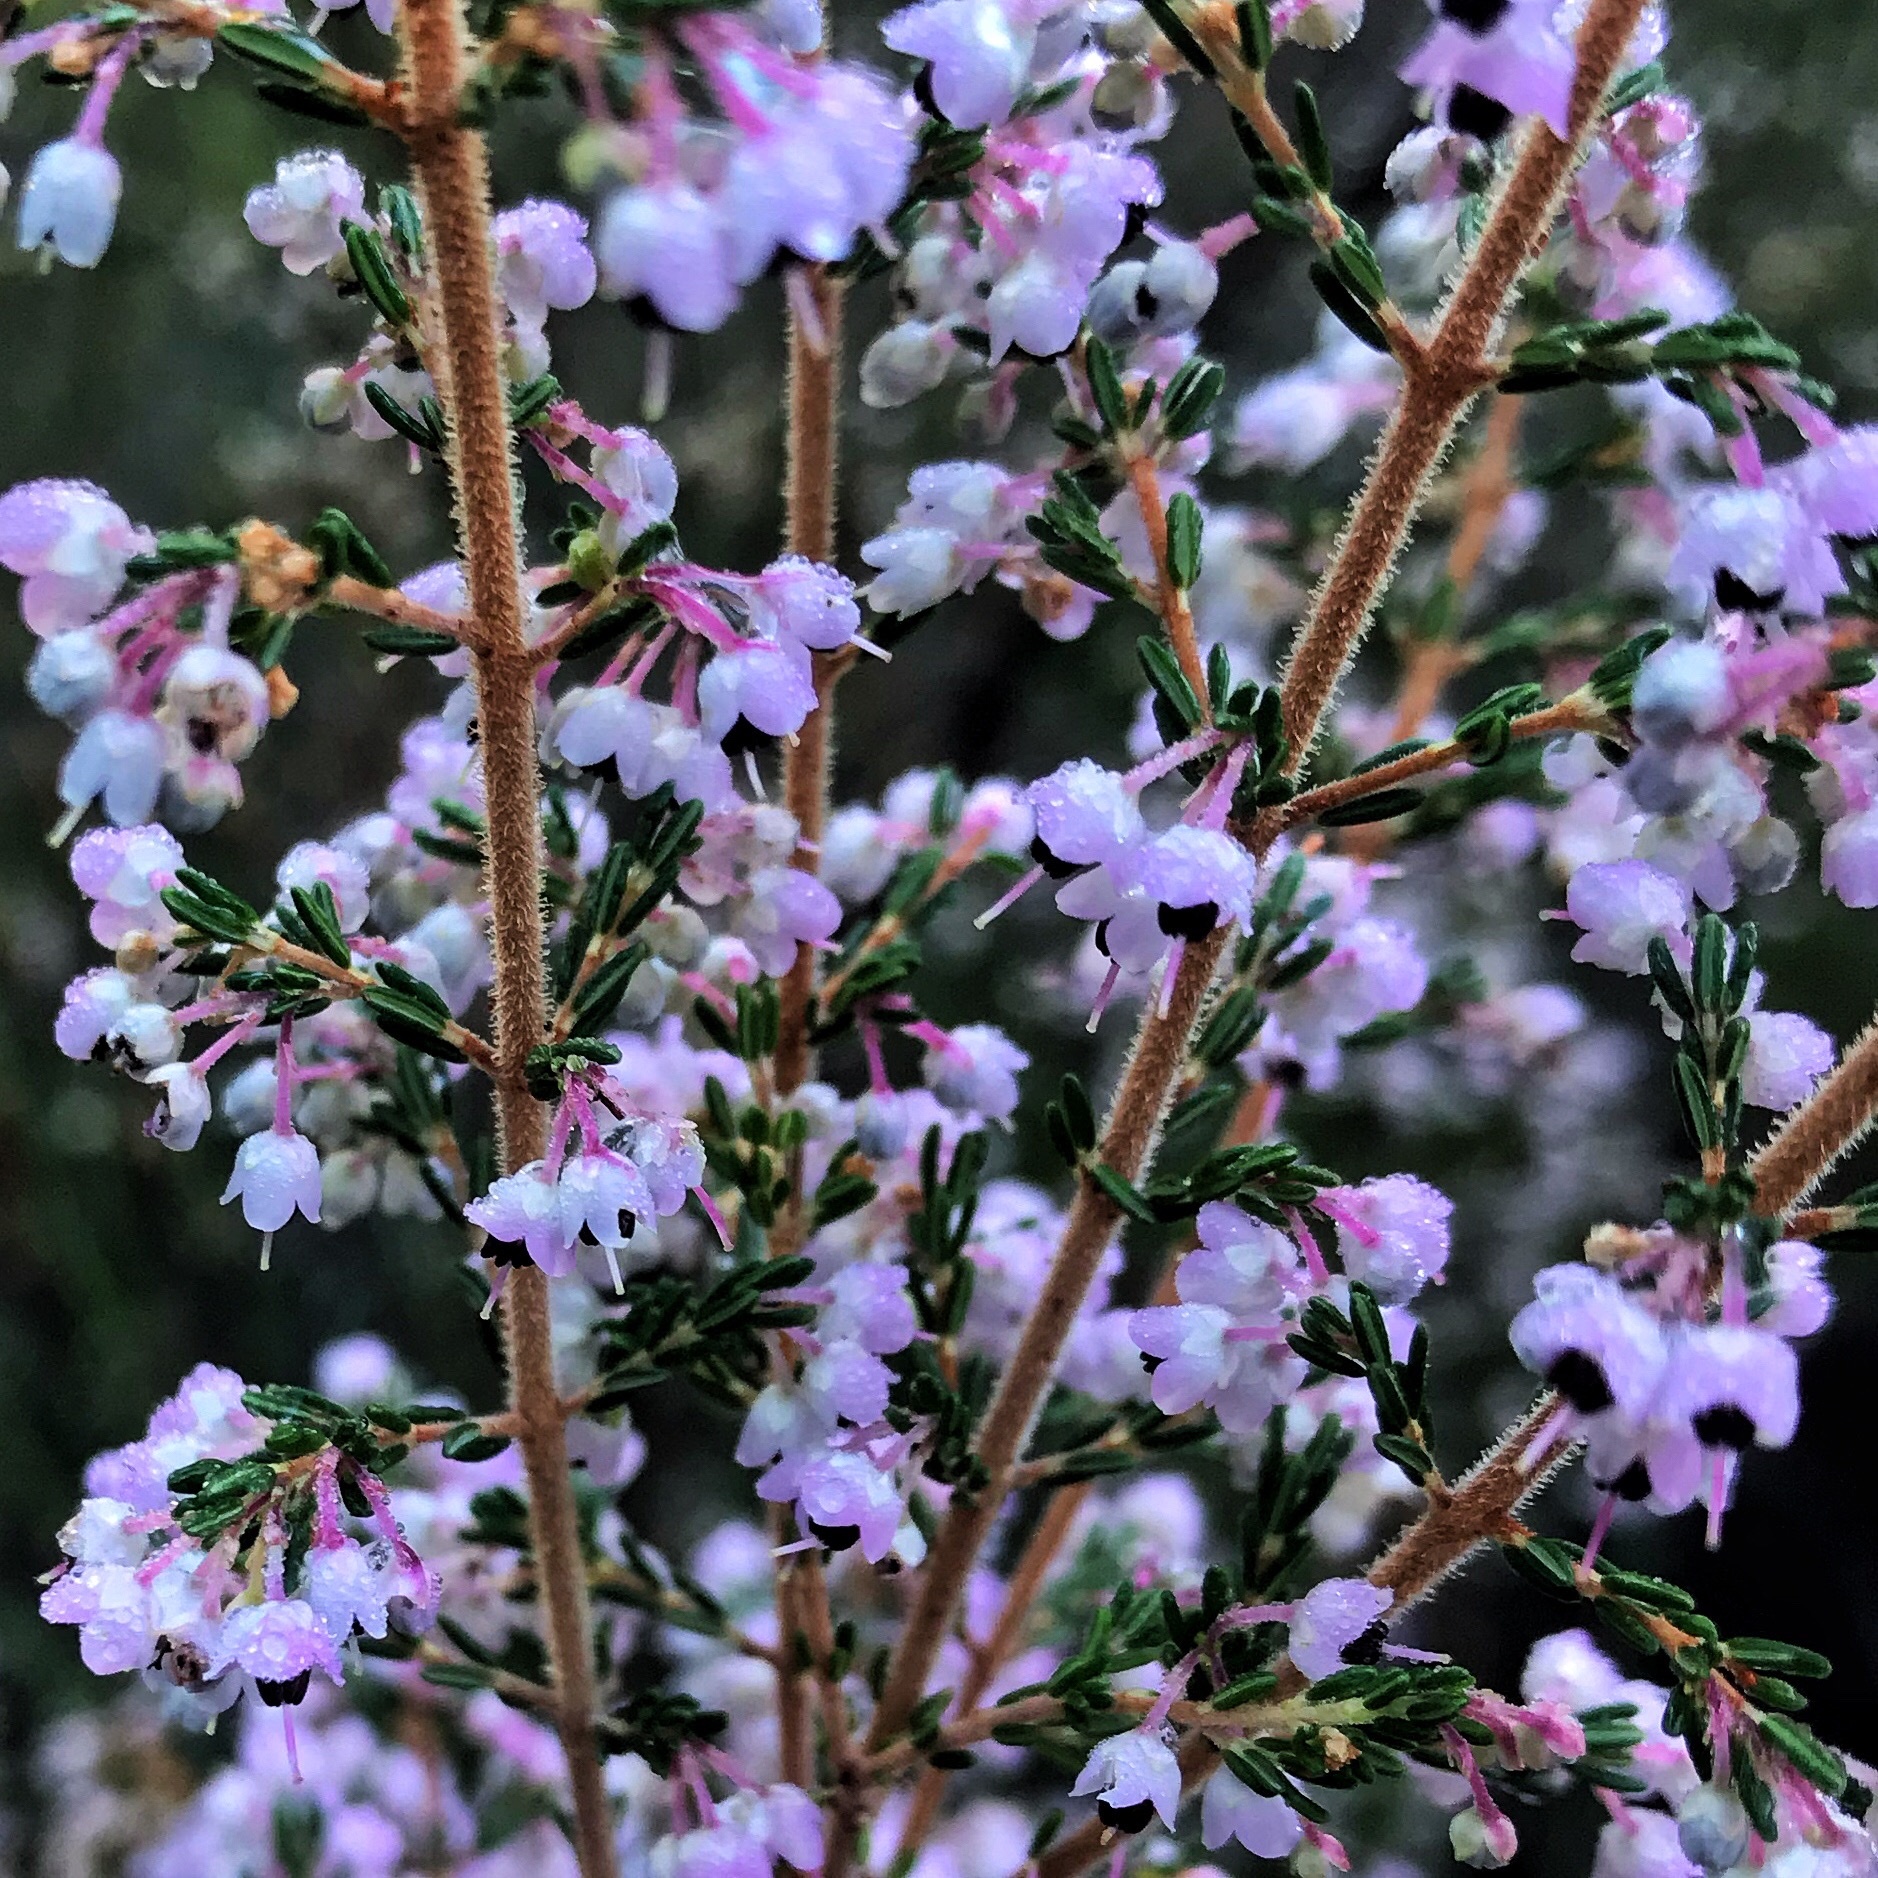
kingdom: Plantae
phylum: Tracheophyta
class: Magnoliopsida
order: Ericales
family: Ericaceae
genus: Erica
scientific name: Erica canaliculata
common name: Hairy grey heather
